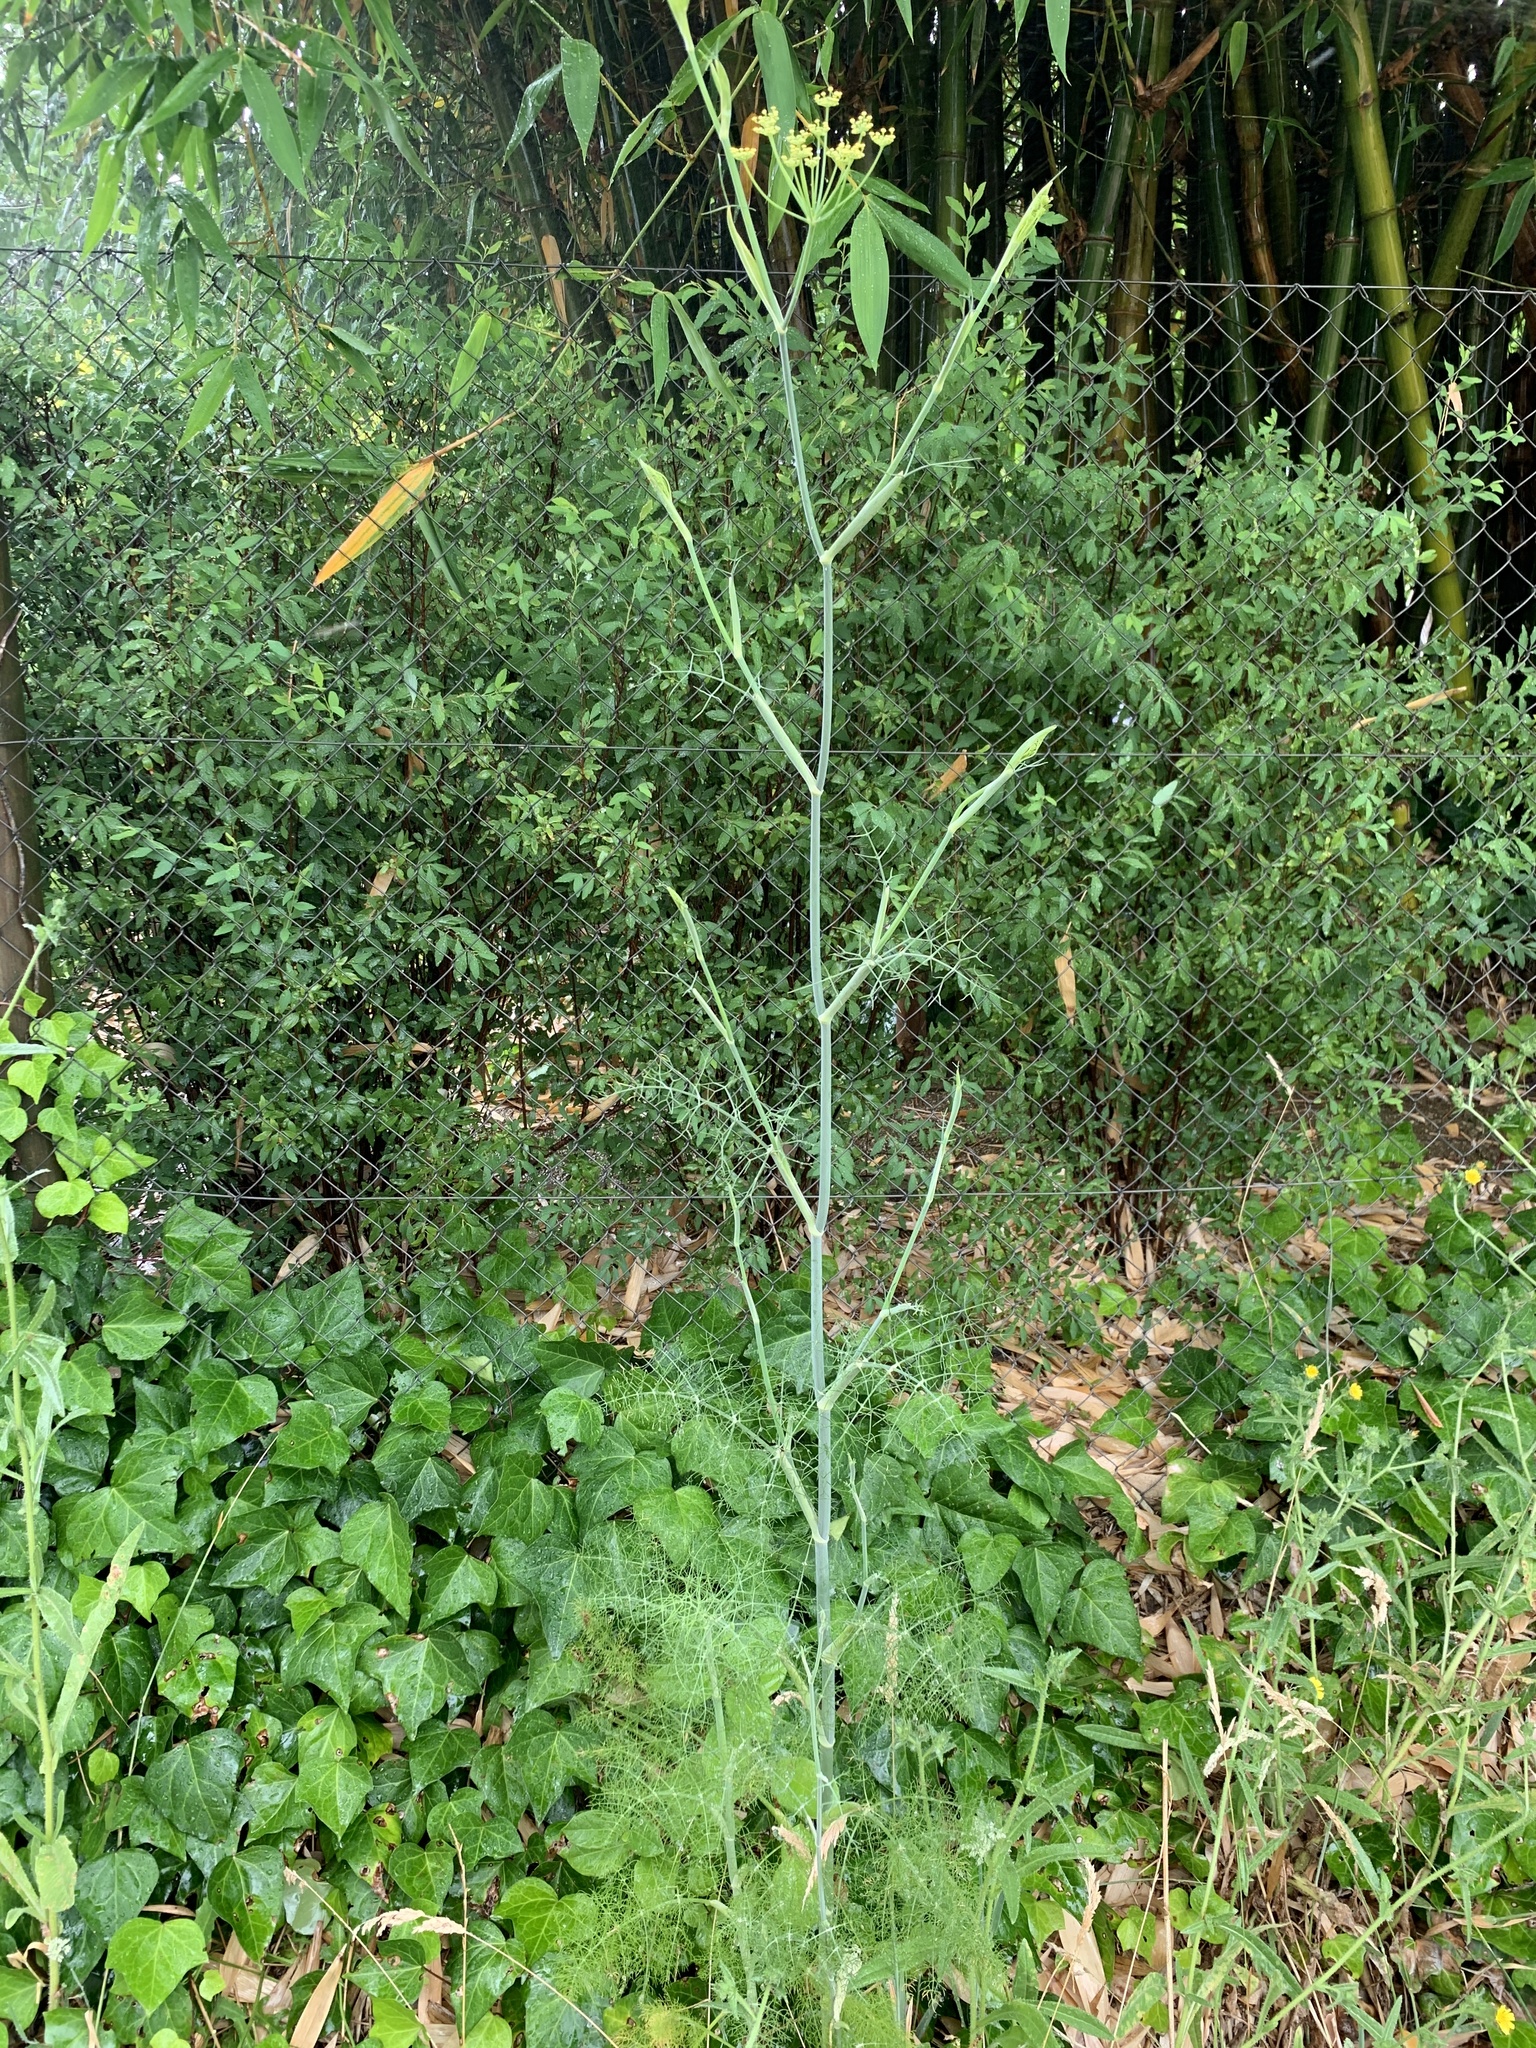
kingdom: Plantae
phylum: Tracheophyta
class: Magnoliopsida
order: Apiales
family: Apiaceae
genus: Foeniculum
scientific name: Foeniculum vulgare
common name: Fennel
